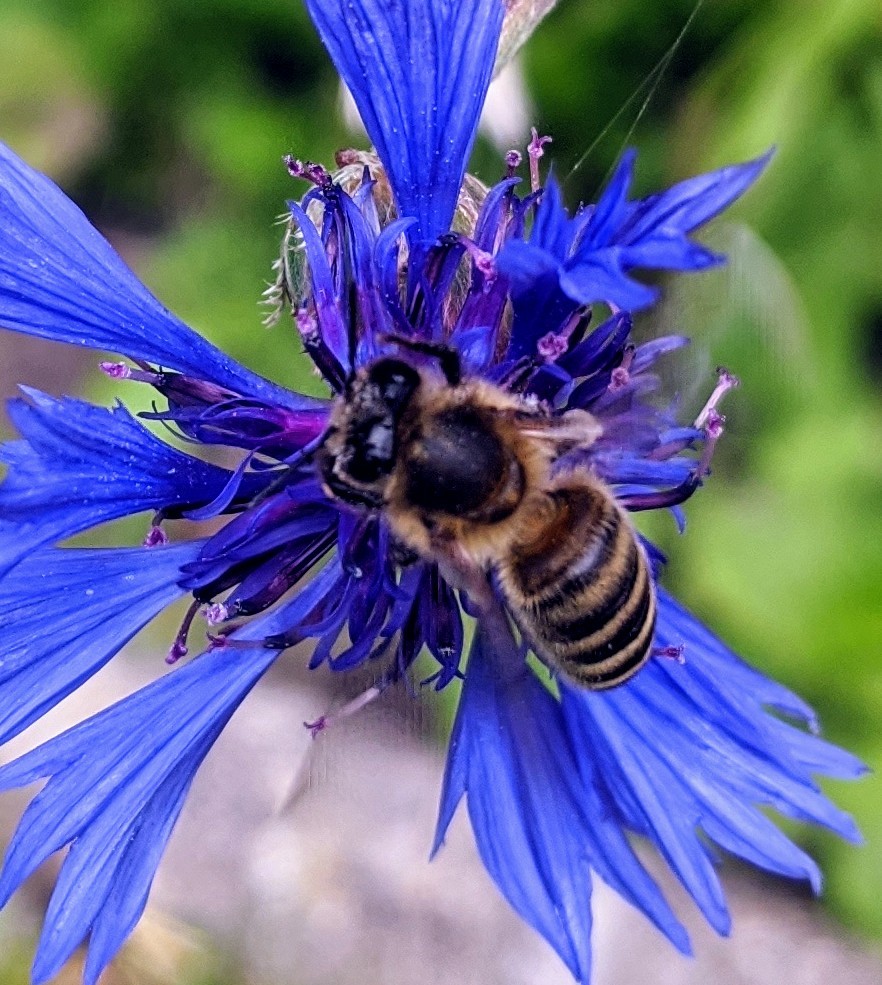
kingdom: Animalia
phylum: Arthropoda
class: Insecta
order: Hymenoptera
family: Apidae
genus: Apis
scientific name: Apis mellifera
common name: Honey bee
